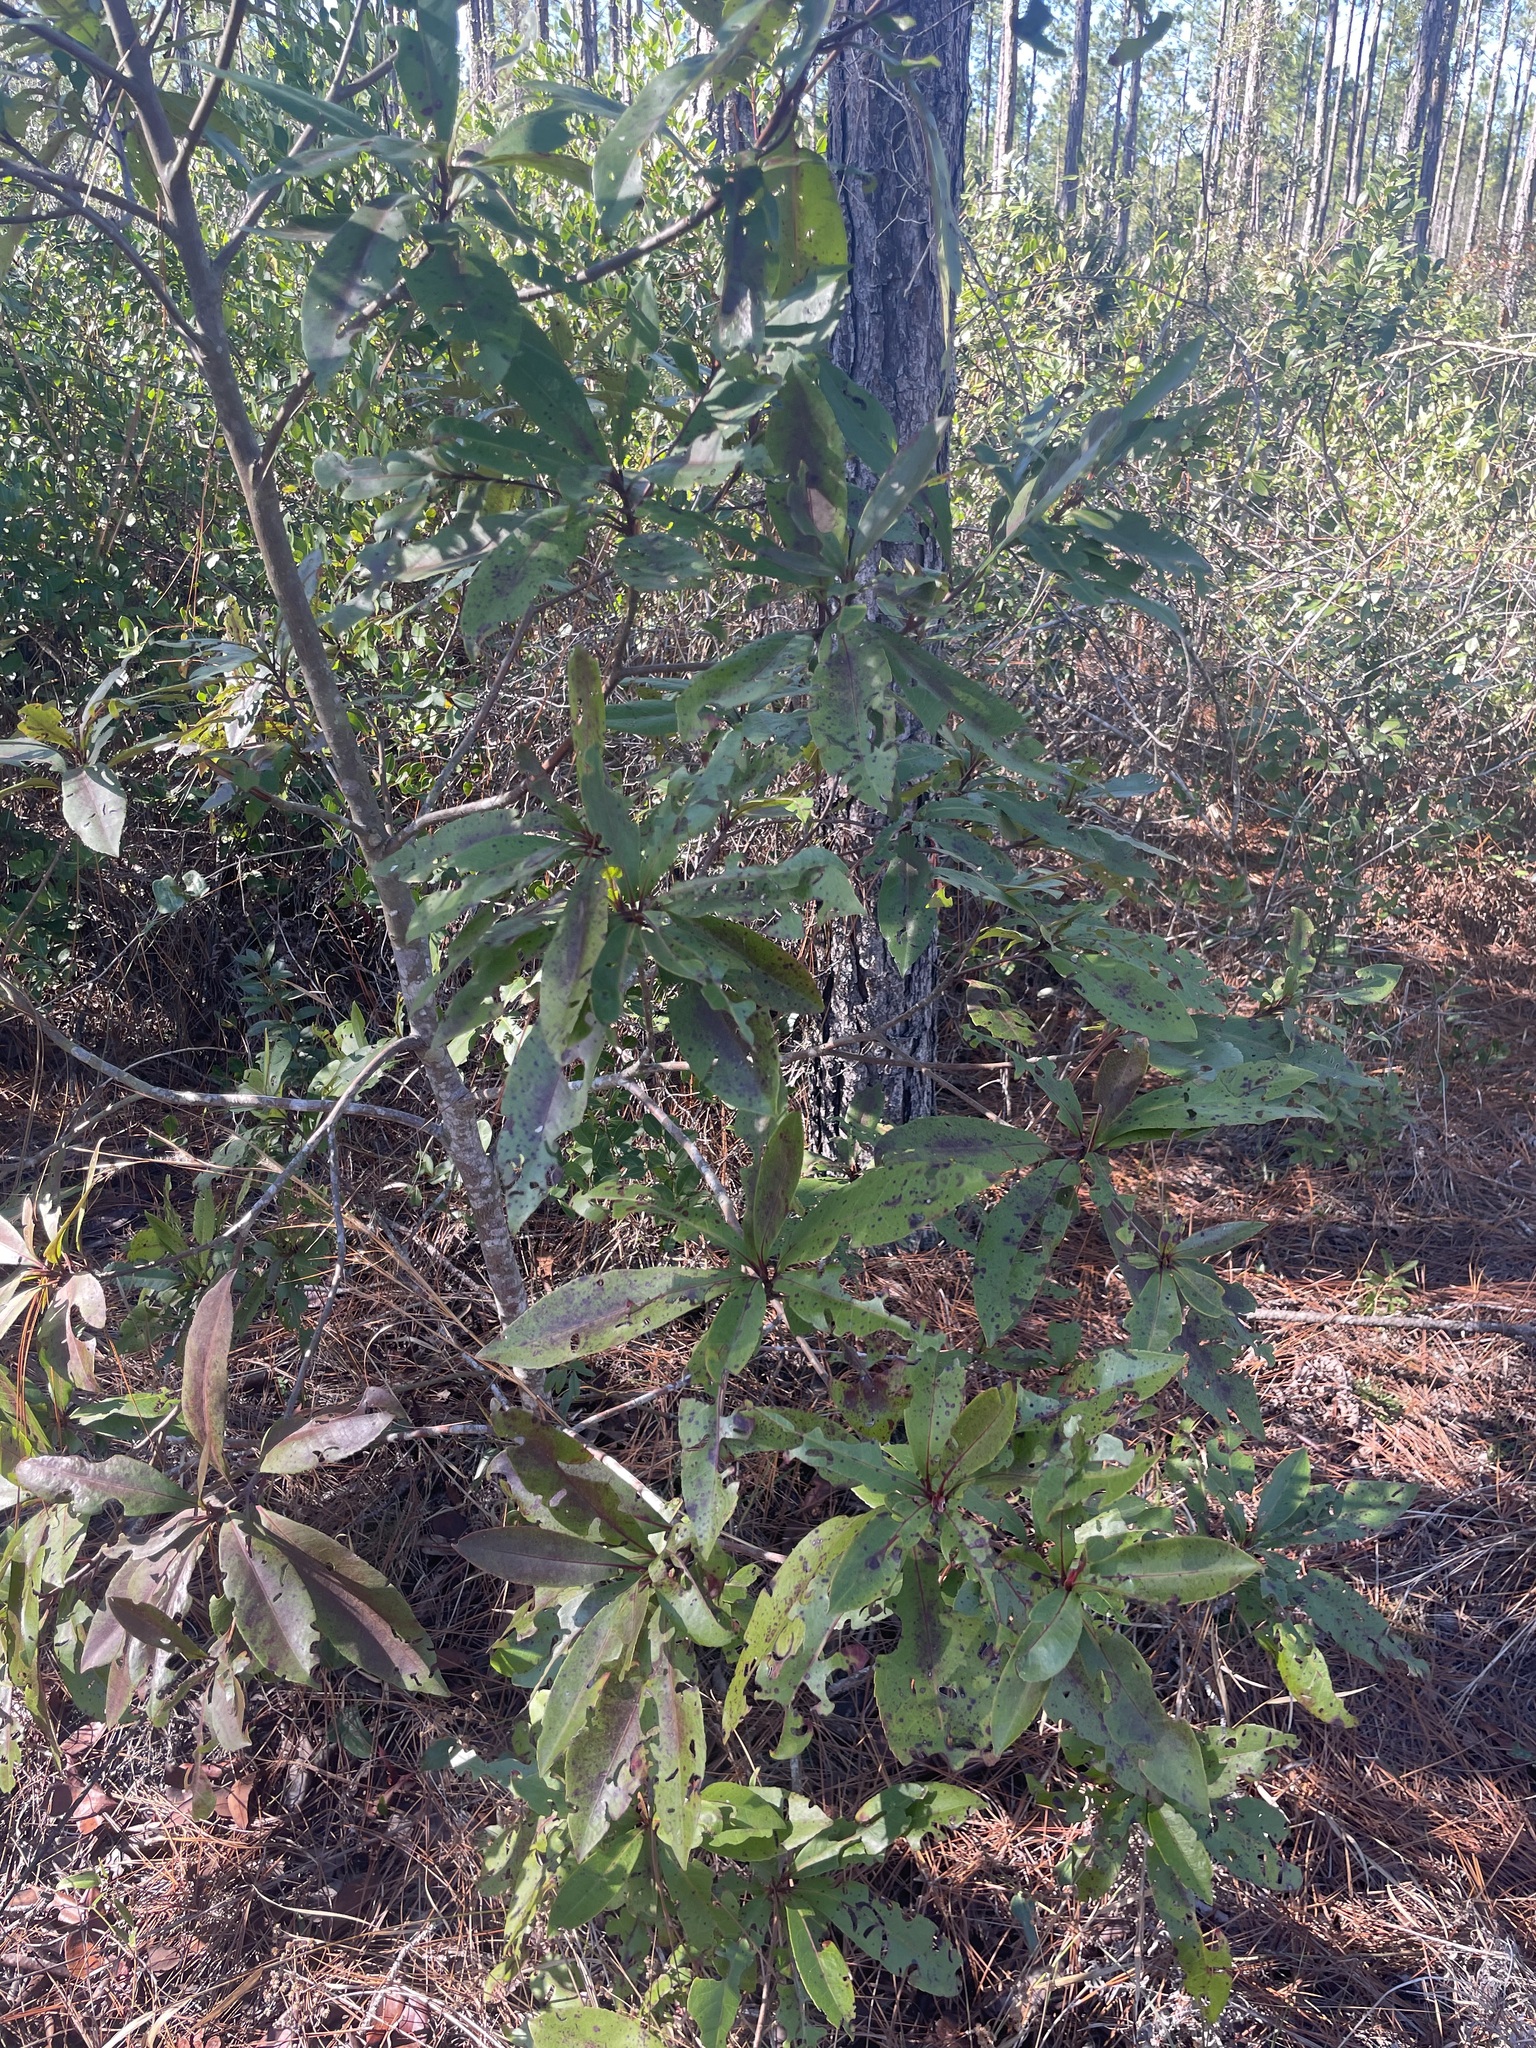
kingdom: Plantae
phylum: Tracheophyta
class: Magnoliopsida
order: Ericales
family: Theaceae
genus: Gordonia
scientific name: Gordonia lasianthus
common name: Loblolly bay
